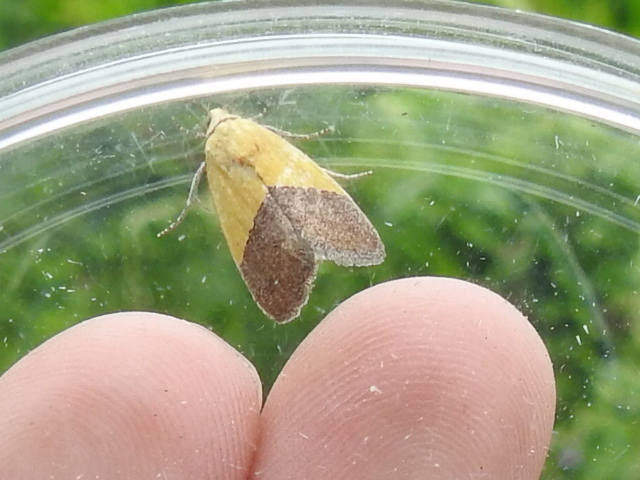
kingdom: Animalia
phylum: Arthropoda
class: Insecta
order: Lepidoptera
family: Noctuidae
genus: Acontia
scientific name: Acontia semiflava
